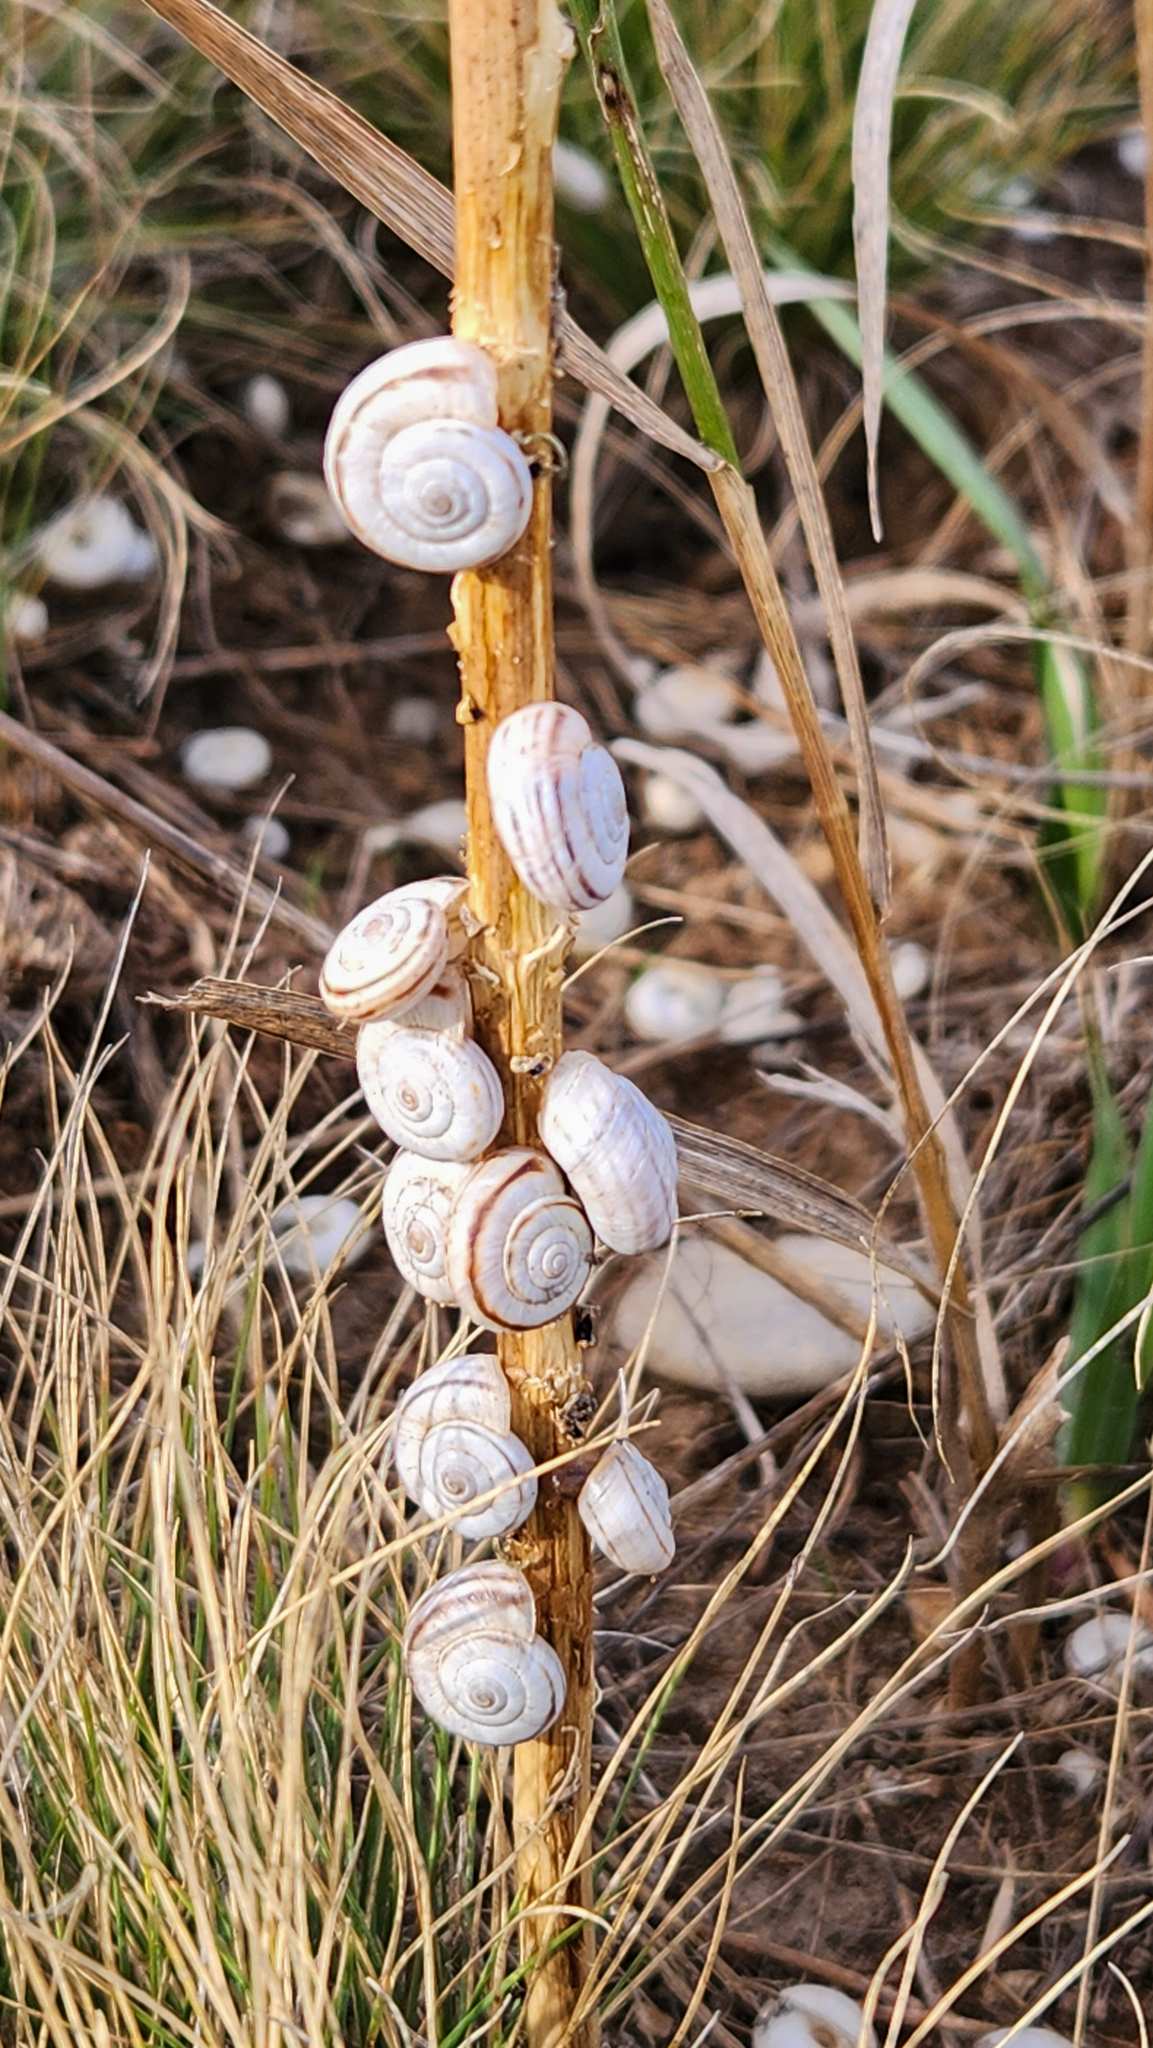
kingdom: Animalia
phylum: Mollusca
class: Gastropoda
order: Stylommatophora
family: Geomitridae
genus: Xerolenta
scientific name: Xerolenta obvia
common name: White heath snail
